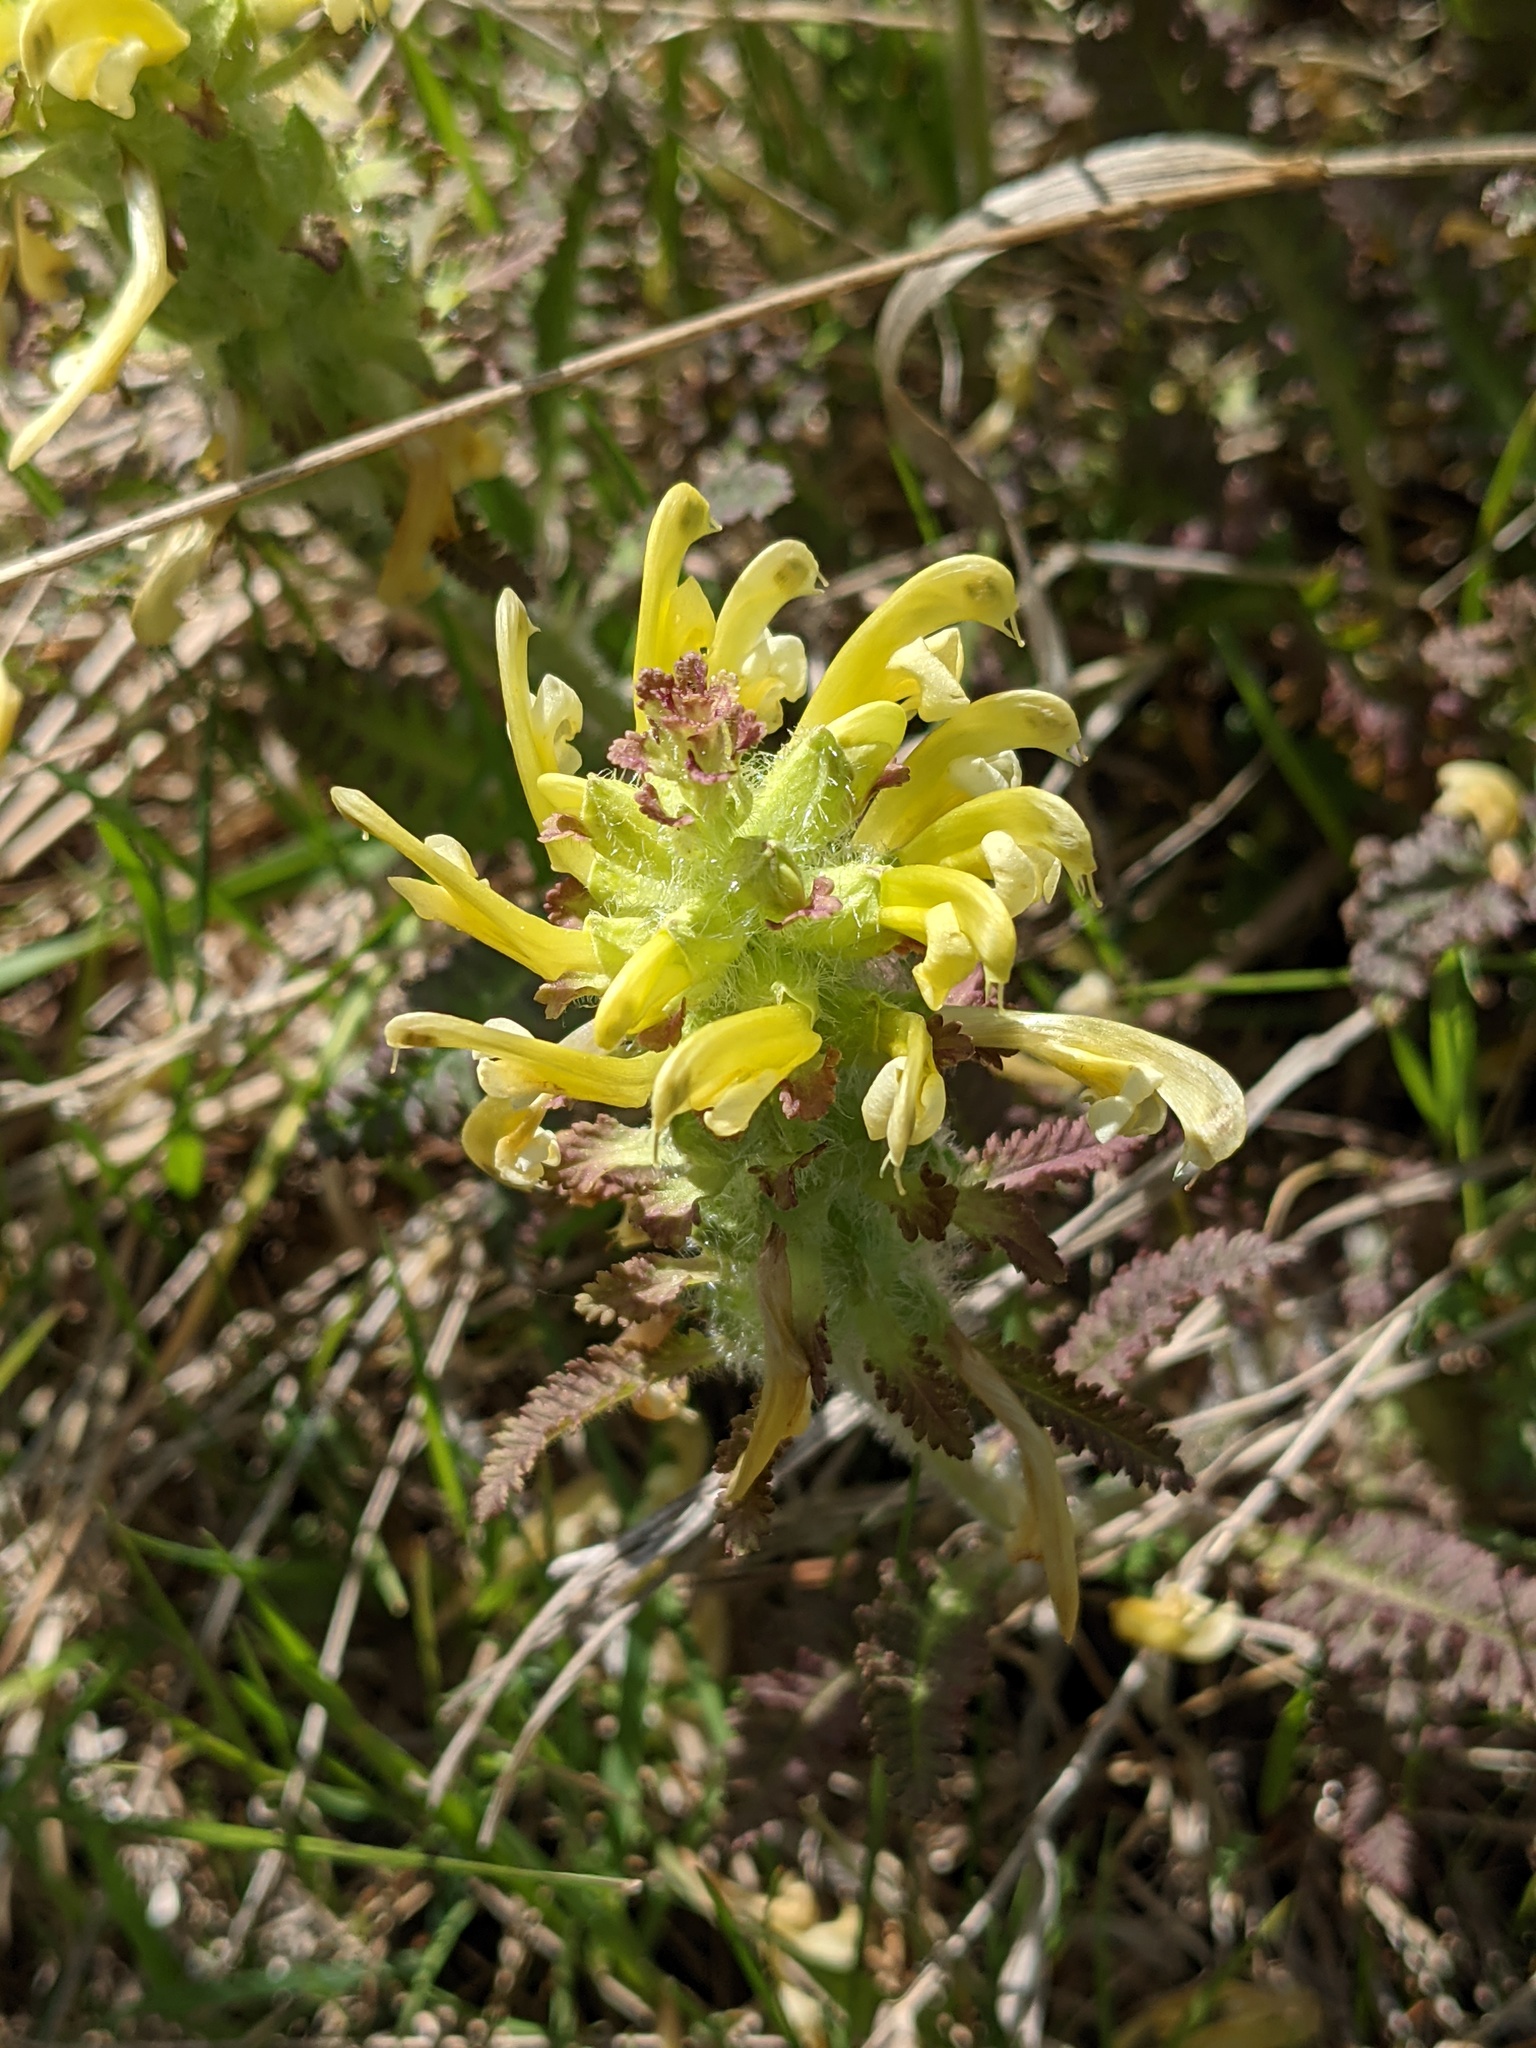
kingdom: Plantae
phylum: Tracheophyta
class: Magnoliopsida
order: Lamiales
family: Orobanchaceae
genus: Pedicularis
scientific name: Pedicularis canadensis
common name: Early lousewort
